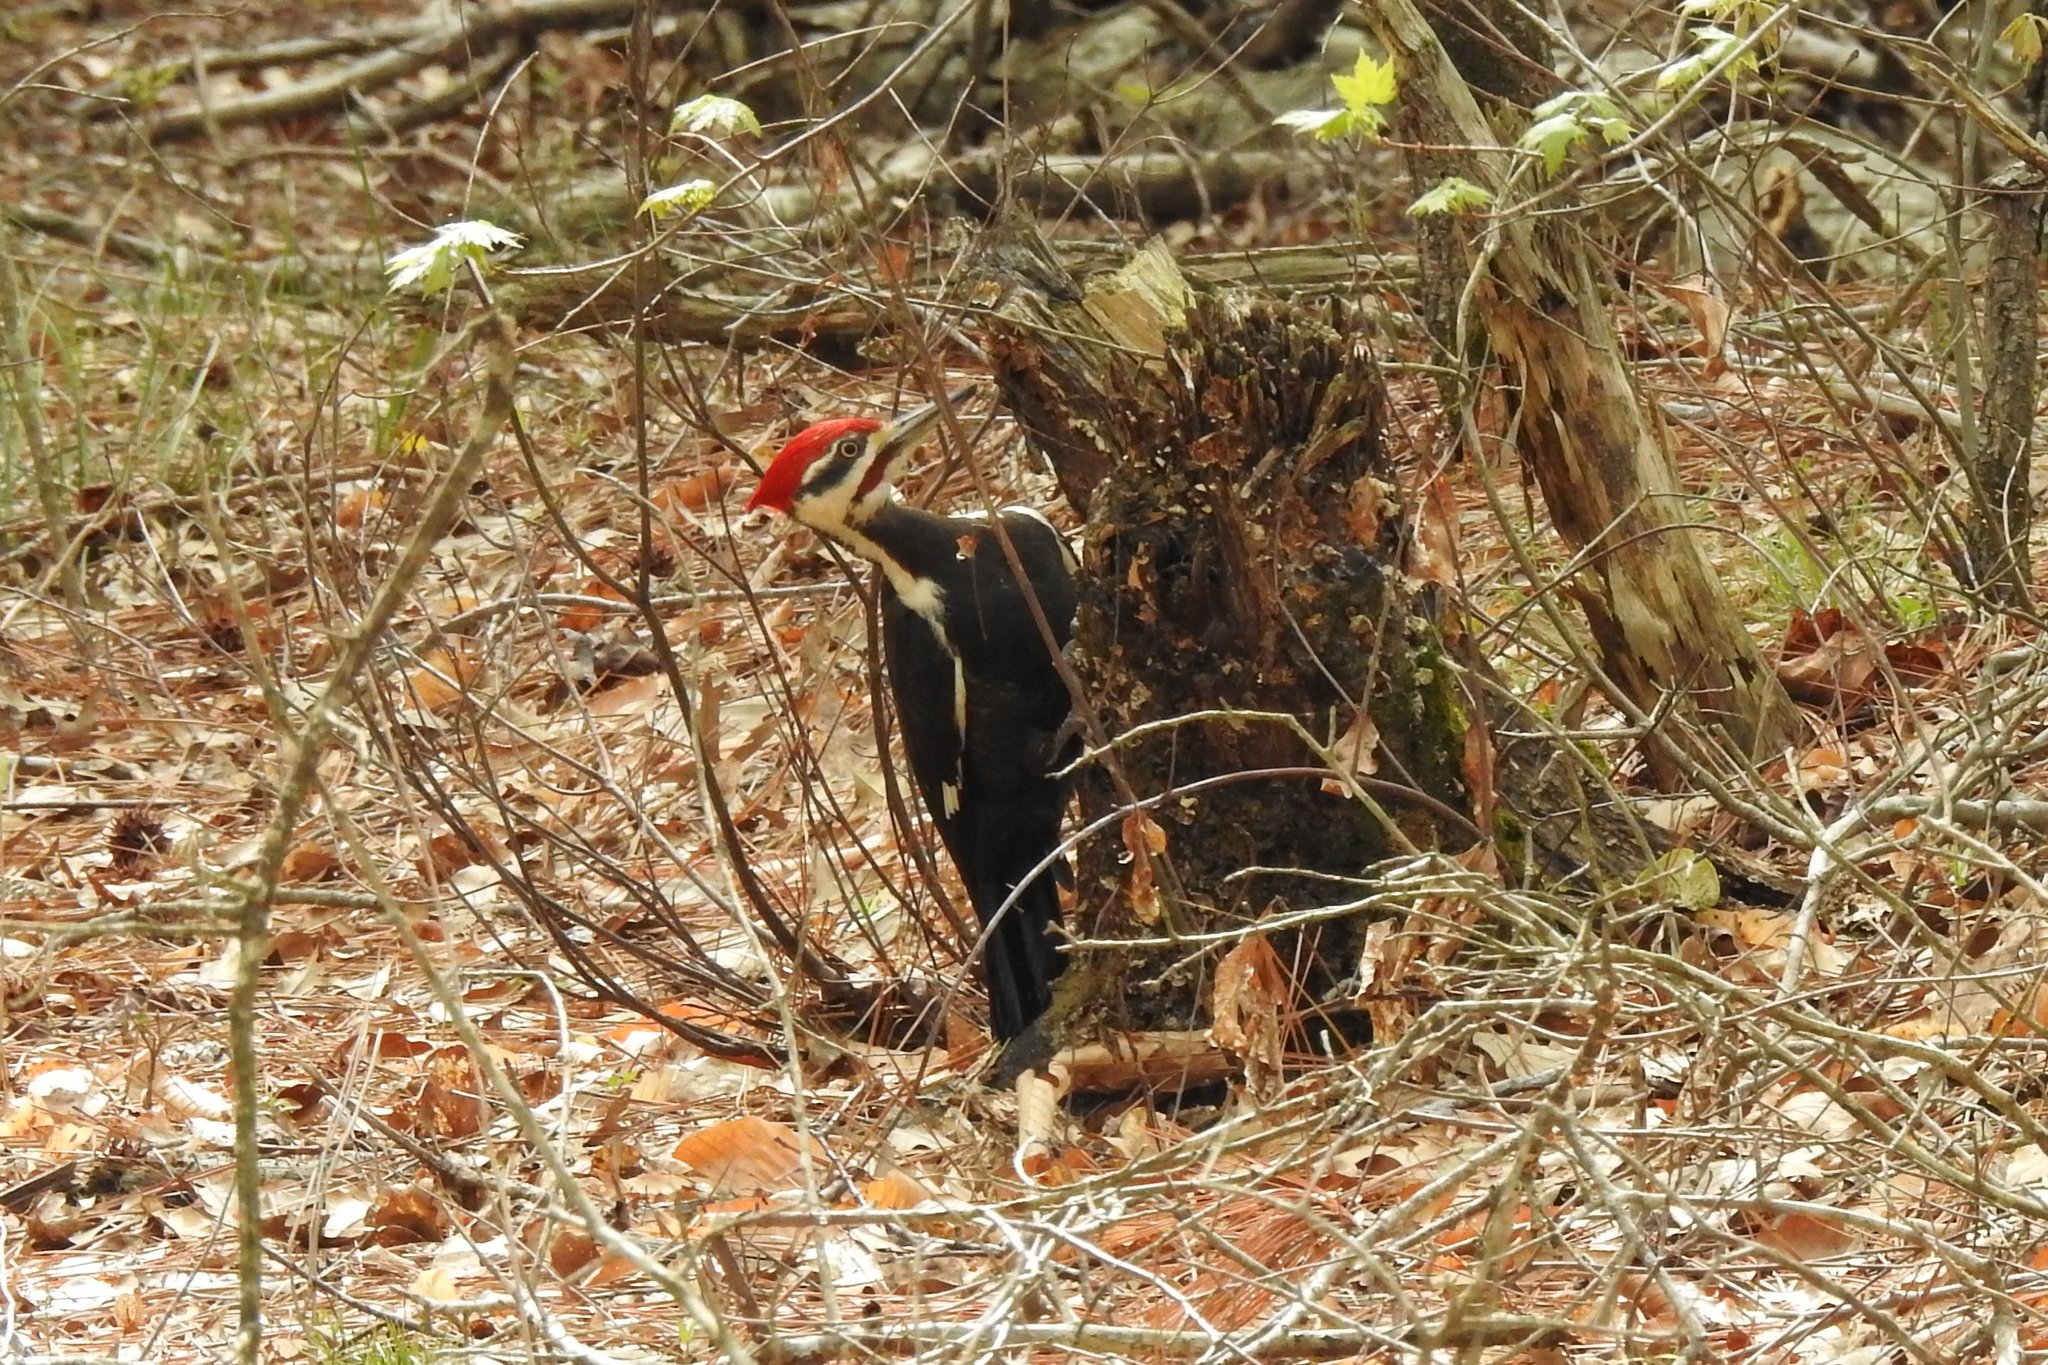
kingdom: Animalia
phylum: Chordata
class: Aves
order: Piciformes
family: Picidae
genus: Dryocopus
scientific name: Dryocopus pileatus
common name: Pileated woodpecker
